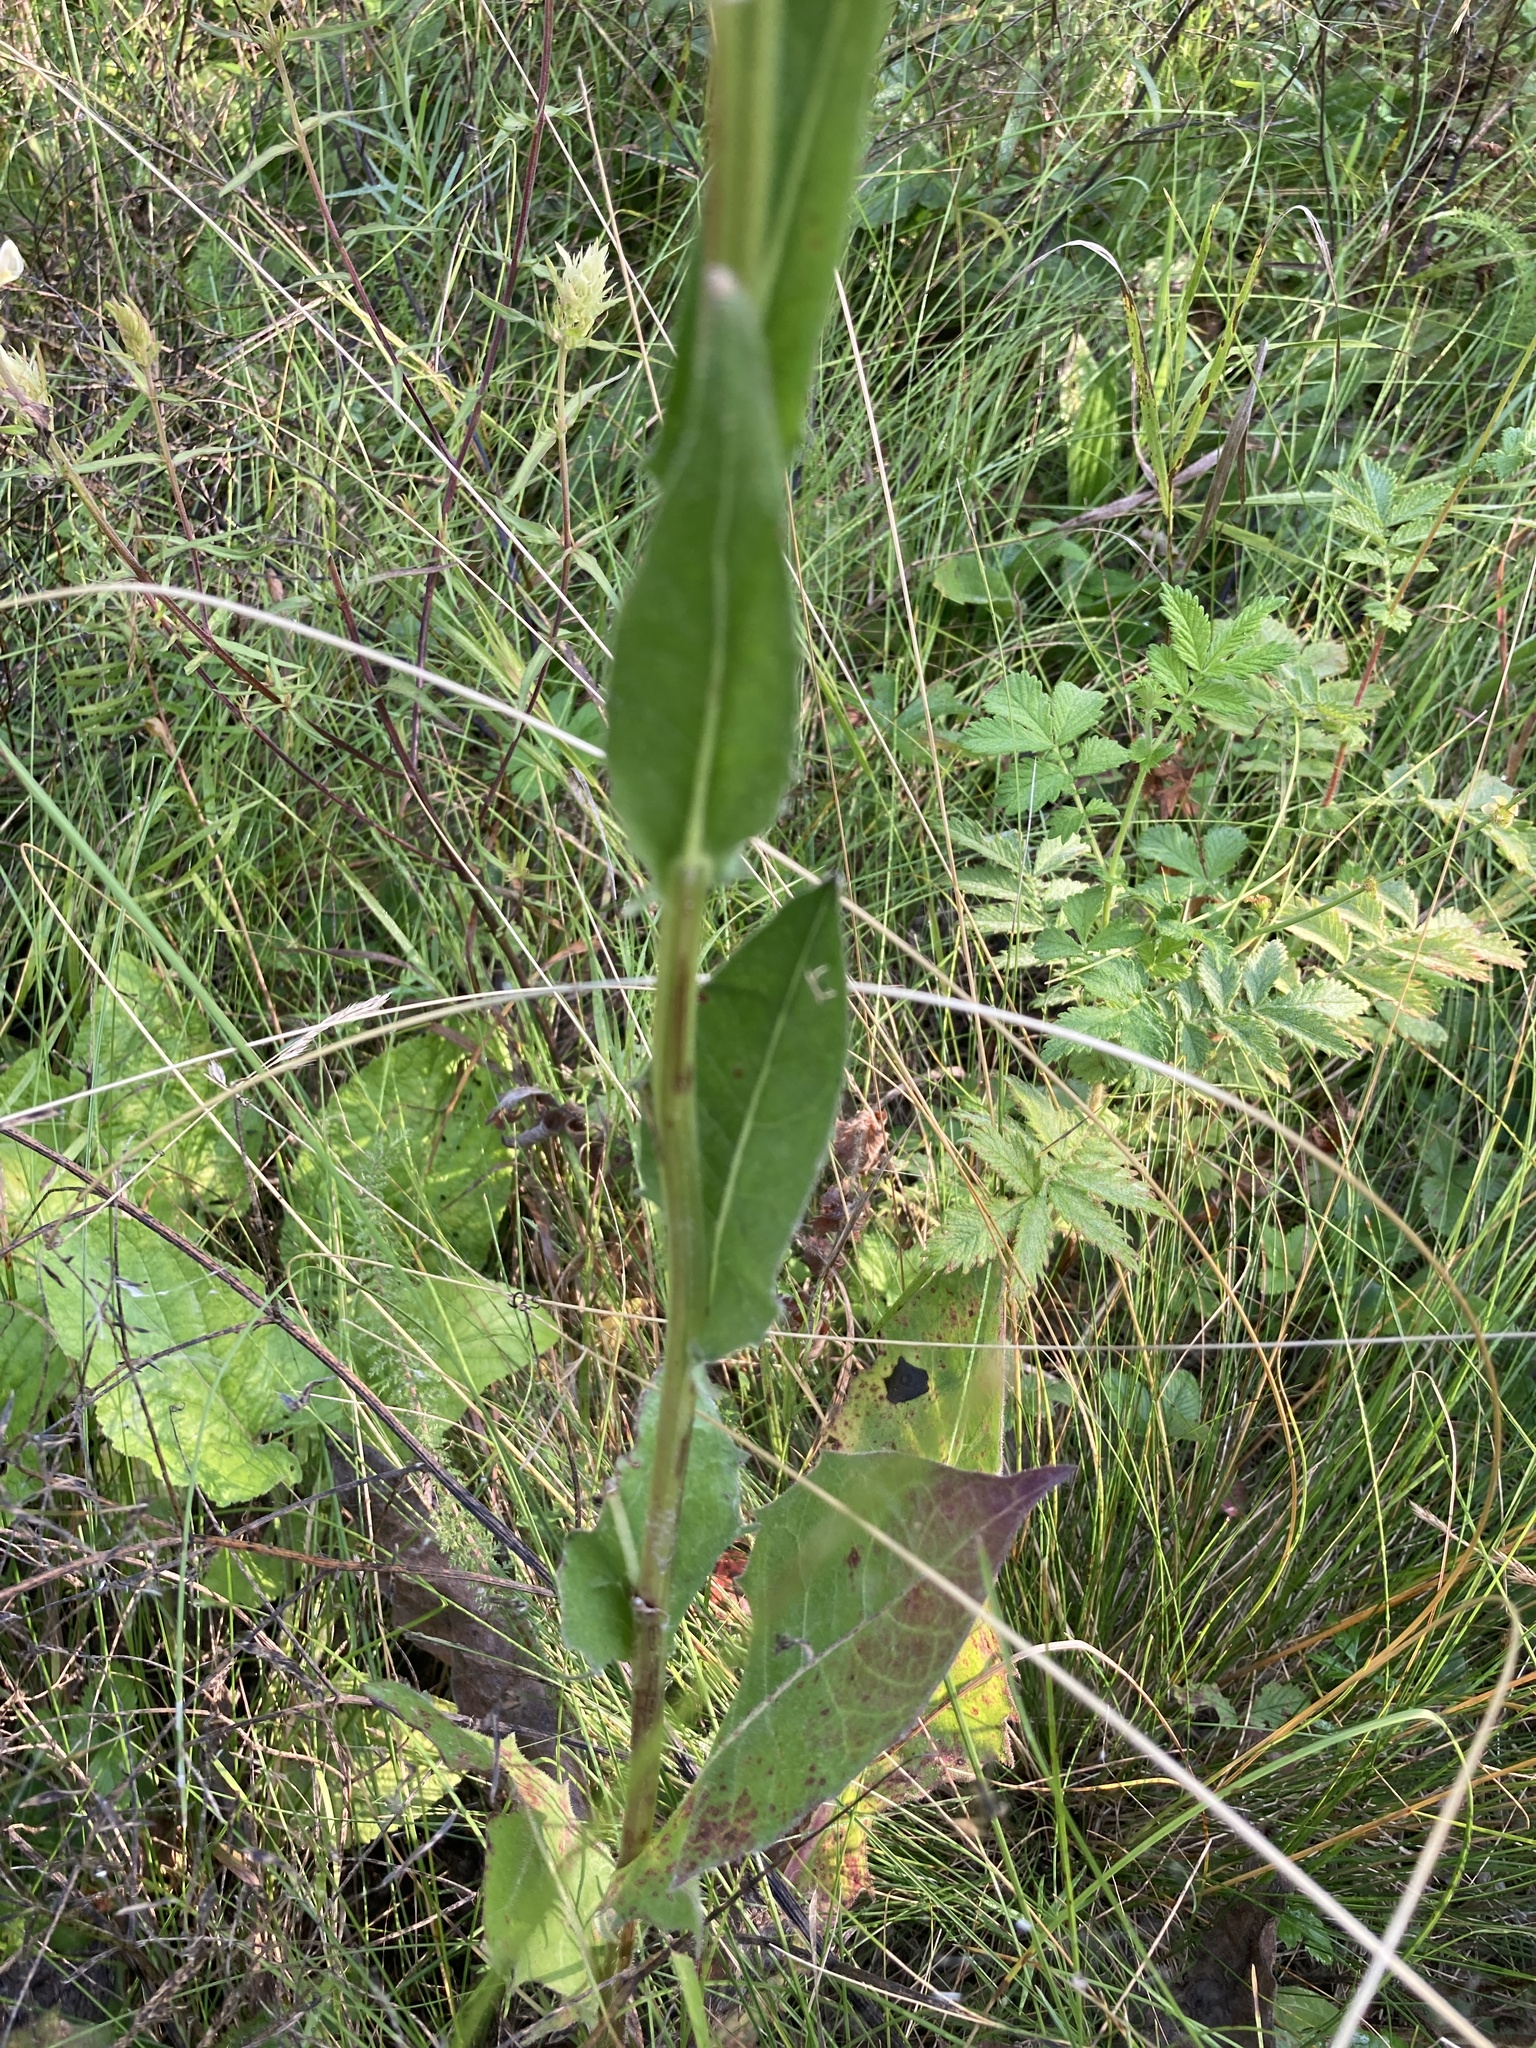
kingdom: Plantae
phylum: Tracheophyta
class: Magnoliopsida
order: Asterales
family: Asteraceae
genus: Crepis
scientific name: Crepis pannonica
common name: Pasture hawksbeard
